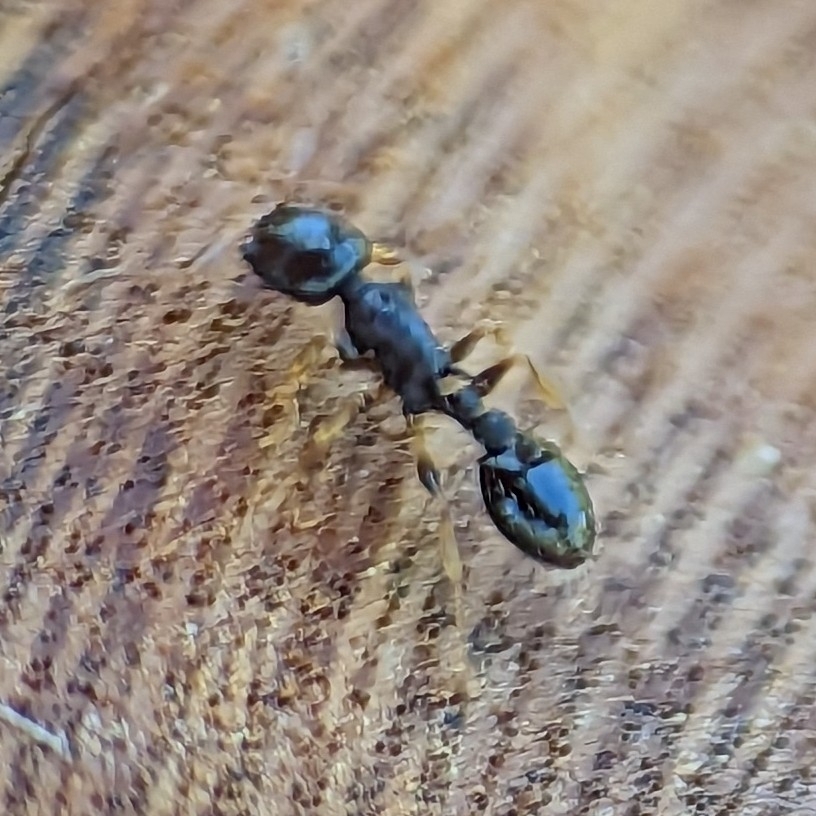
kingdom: Animalia
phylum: Arthropoda
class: Insecta
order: Hymenoptera
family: Formicidae
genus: Temnothorax
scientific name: Temnothorax longispinosus
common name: Long-spined acorn ant
